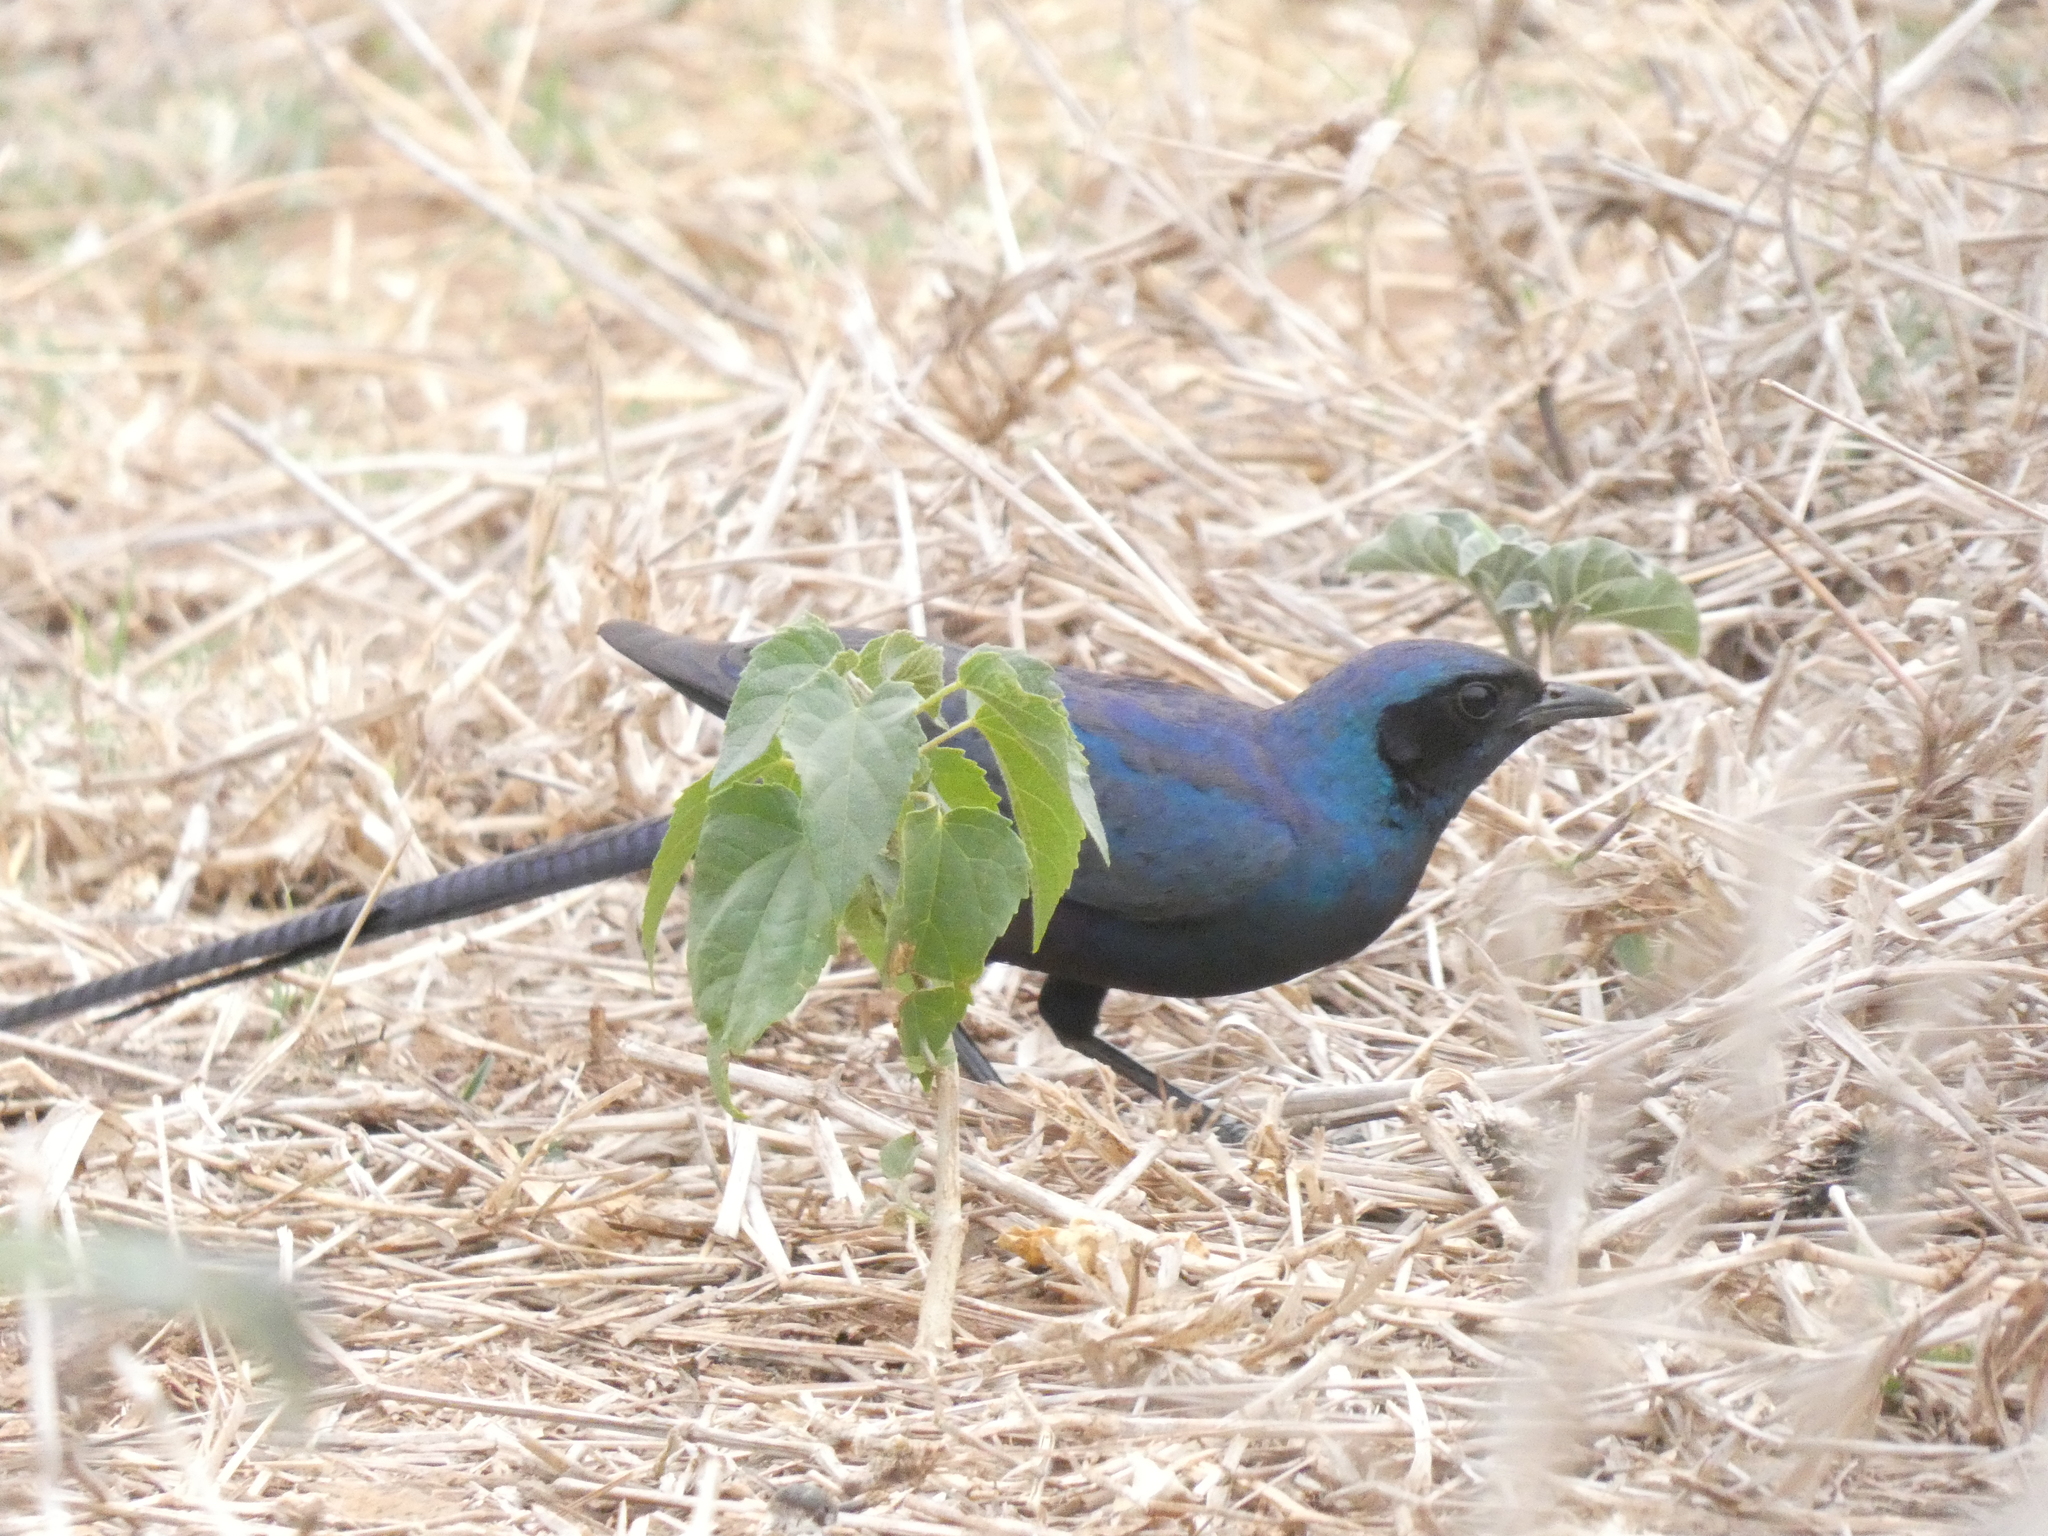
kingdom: Animalia
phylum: Chordata
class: Aves
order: Passeriformes
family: Sturnidae
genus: Lamprotornis
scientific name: Lamprotornis mevesii
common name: Meves's starling
